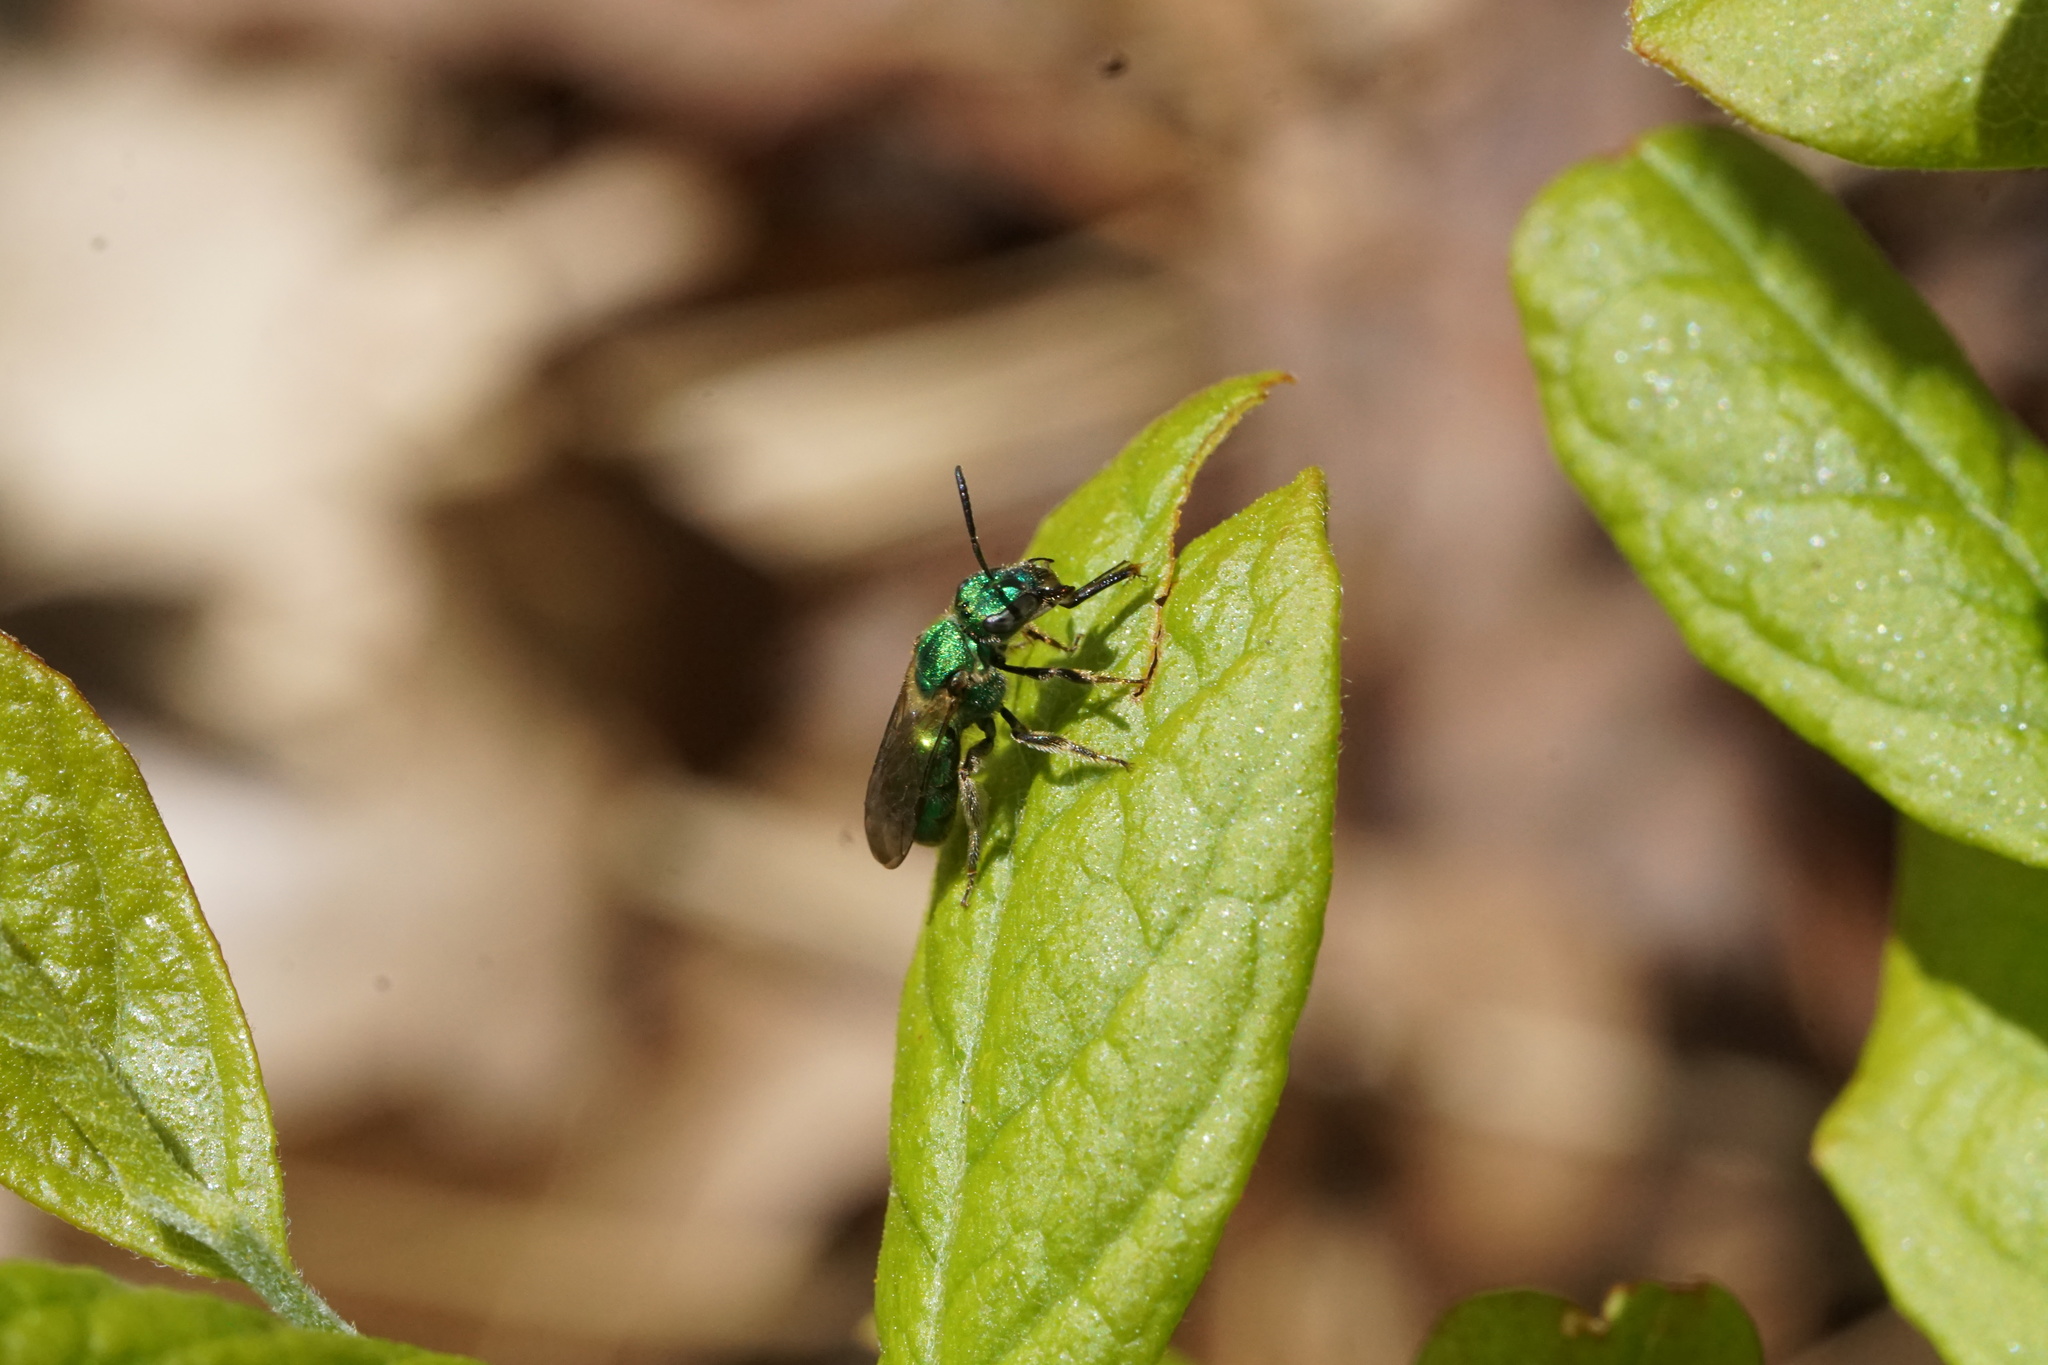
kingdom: Animalia
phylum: Arthropoda
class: Insecta
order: Hymenoptera
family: Halictidae
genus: Augochlorella
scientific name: Augochlorella aurata
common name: Golden sweat bee
